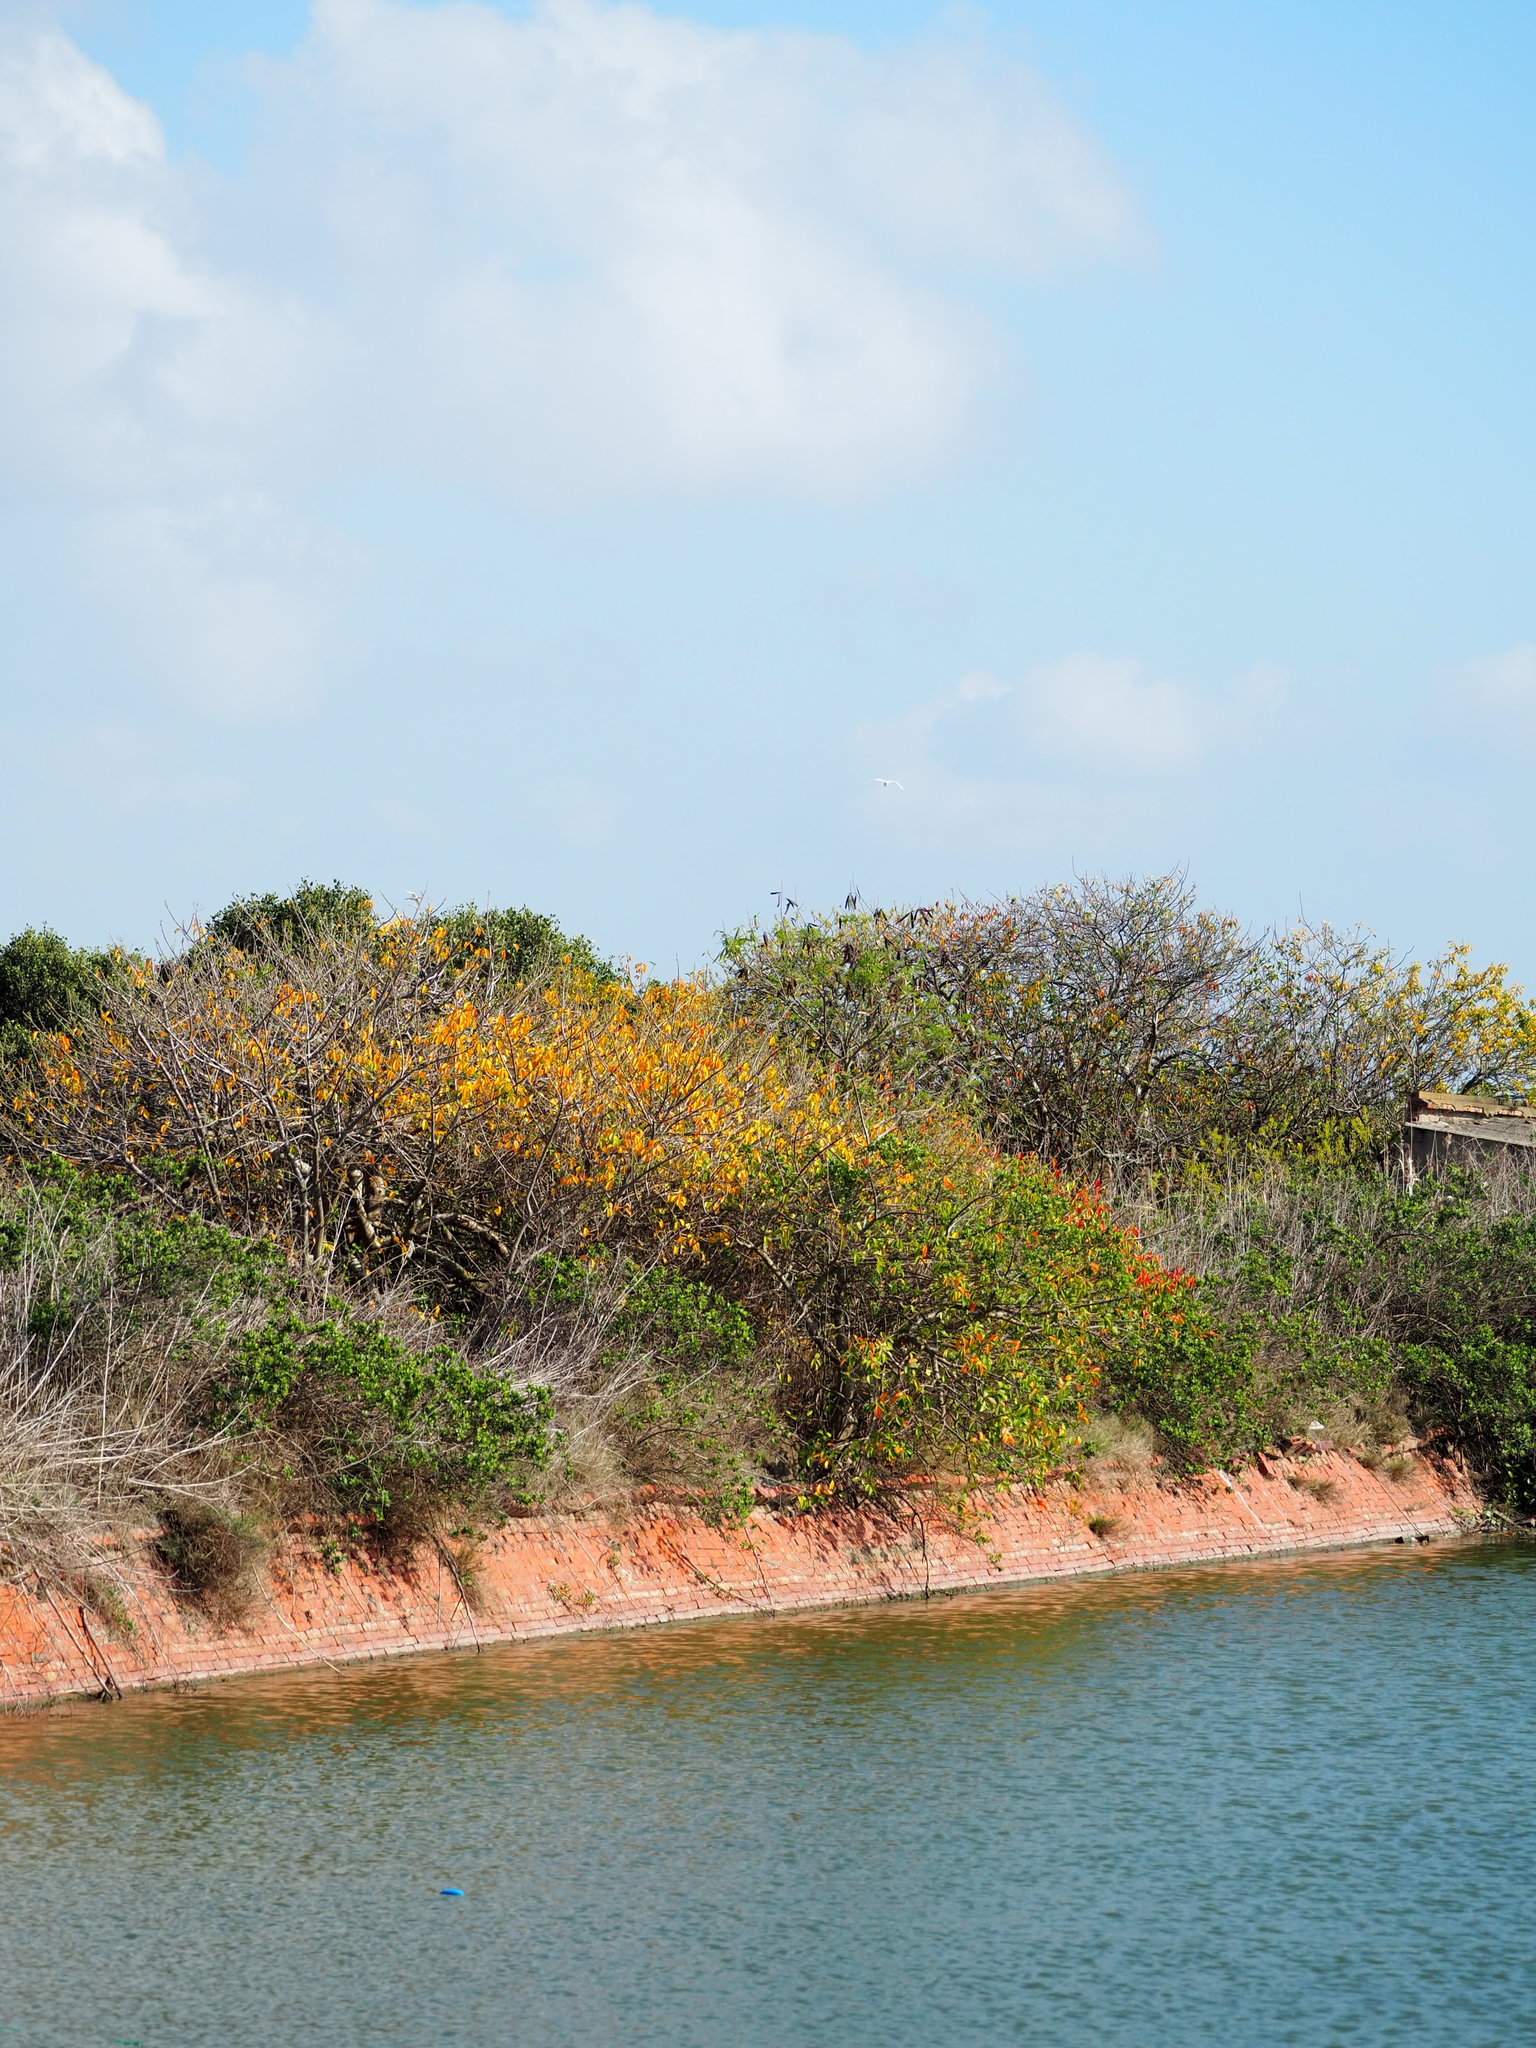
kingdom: Plantae
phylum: Tracheophyta
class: Magnoliopsida
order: Malpighiales
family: Euphorbiaceae
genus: Excoecaria
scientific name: Excoecaria agallocha
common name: River poisontree
